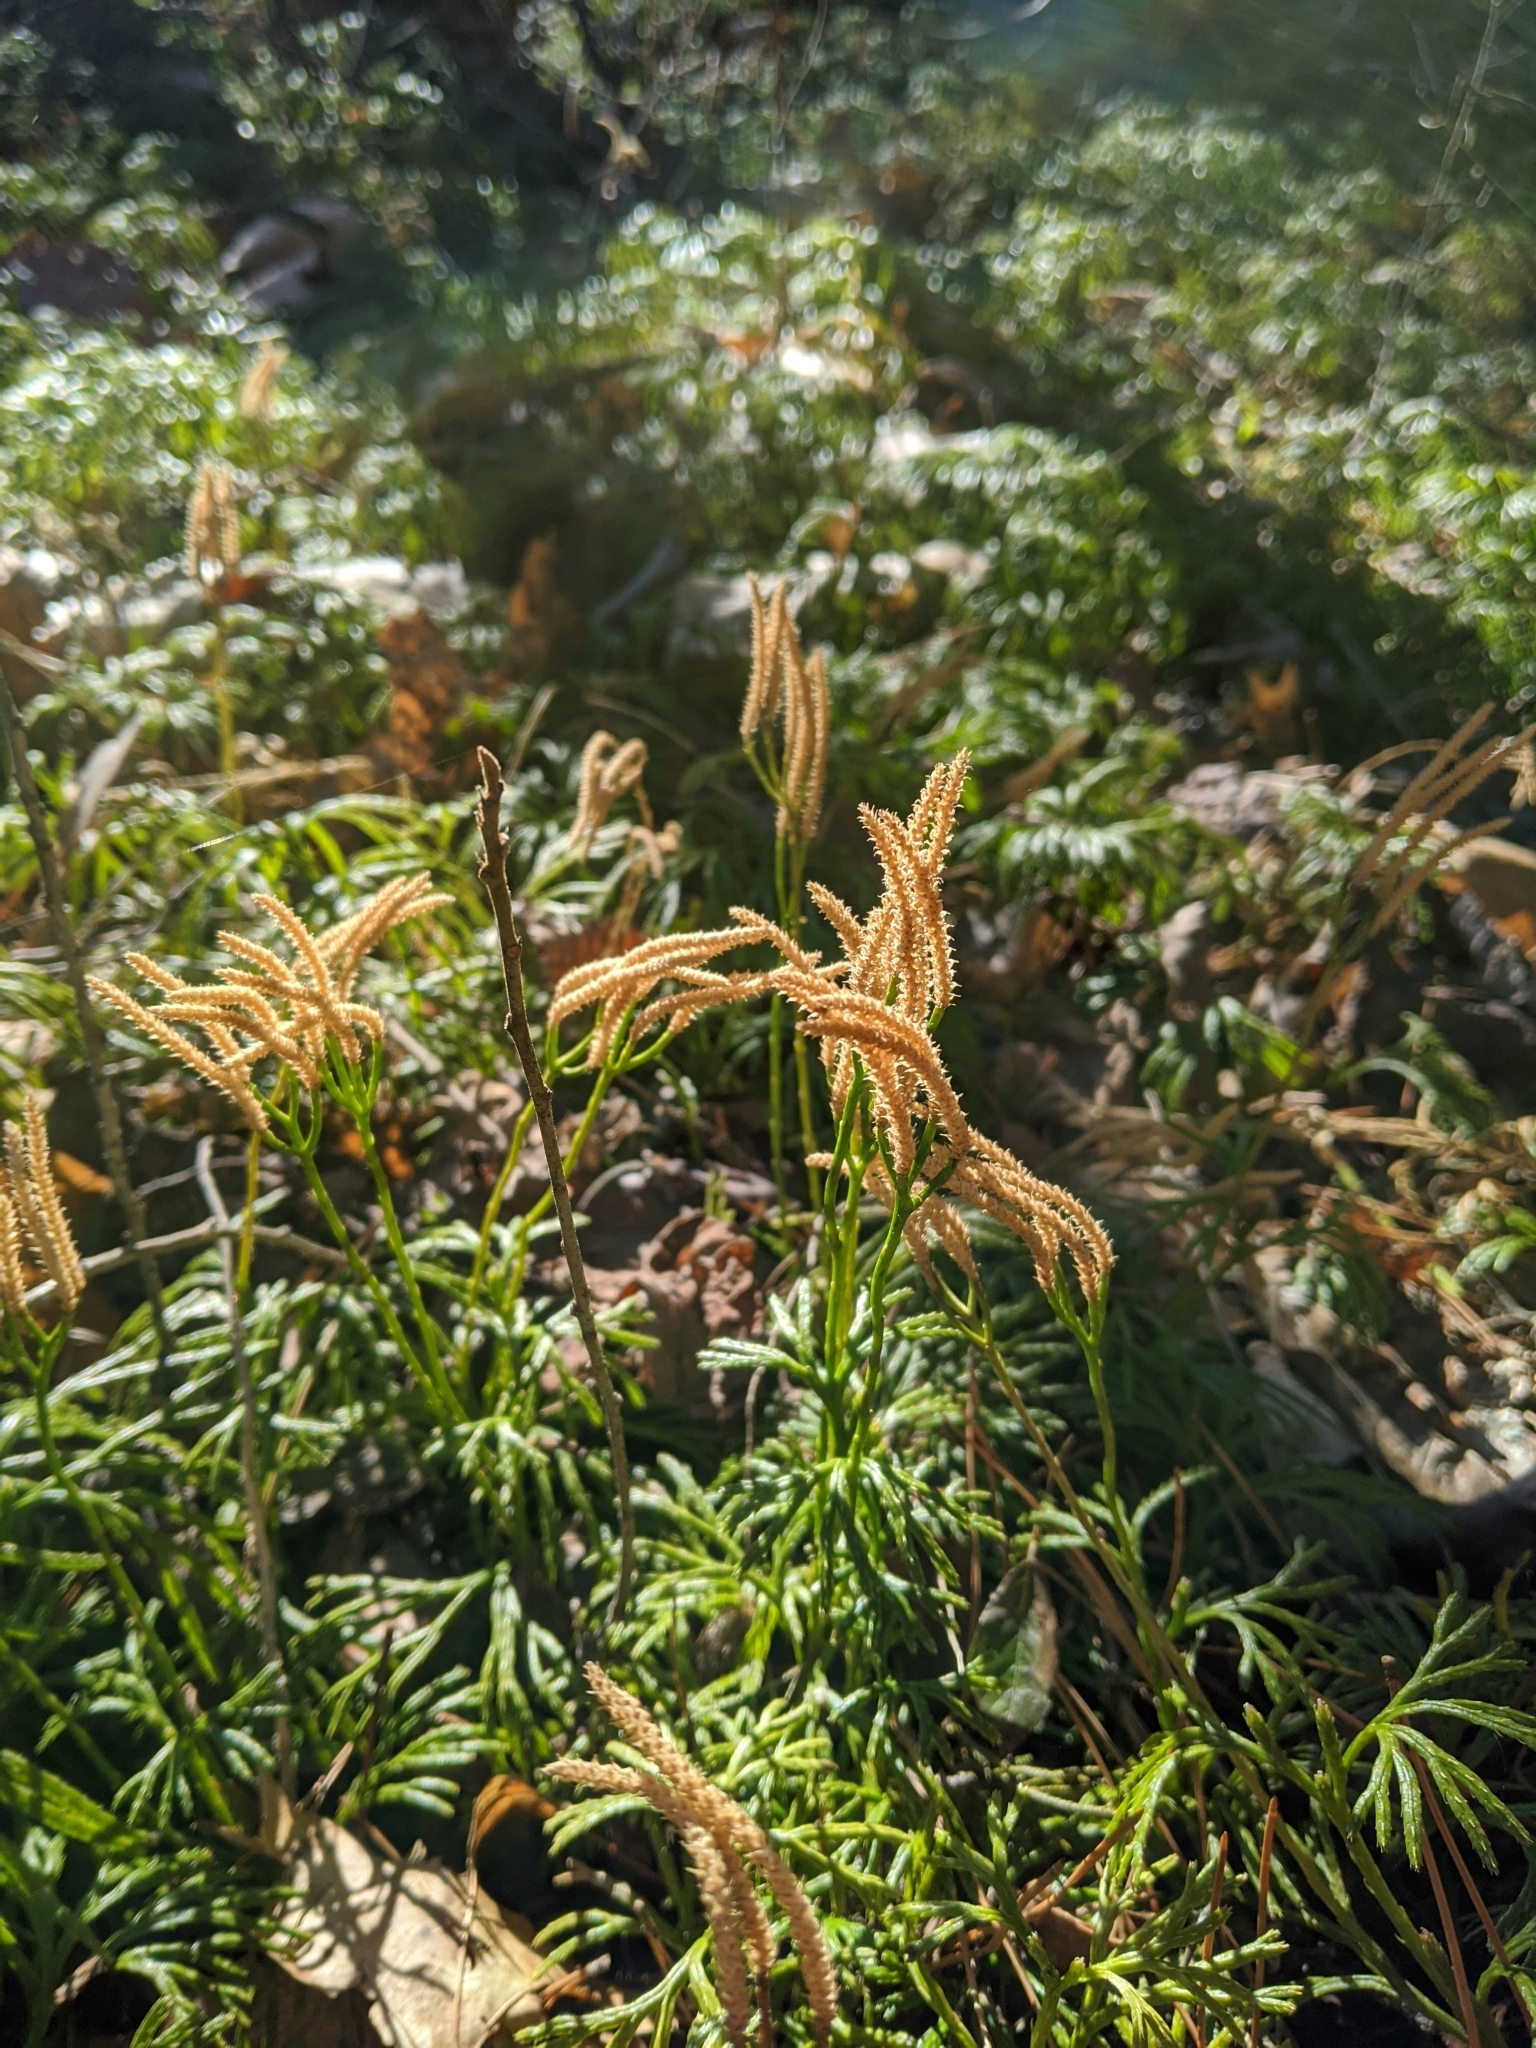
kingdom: Plantae
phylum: Tracheophyta
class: Lycopodiopsida
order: Lycopodiales
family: Lycopodiaceae
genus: Diphasiastrum
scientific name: Diphasiastrum digitatum
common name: Southern running-pine
